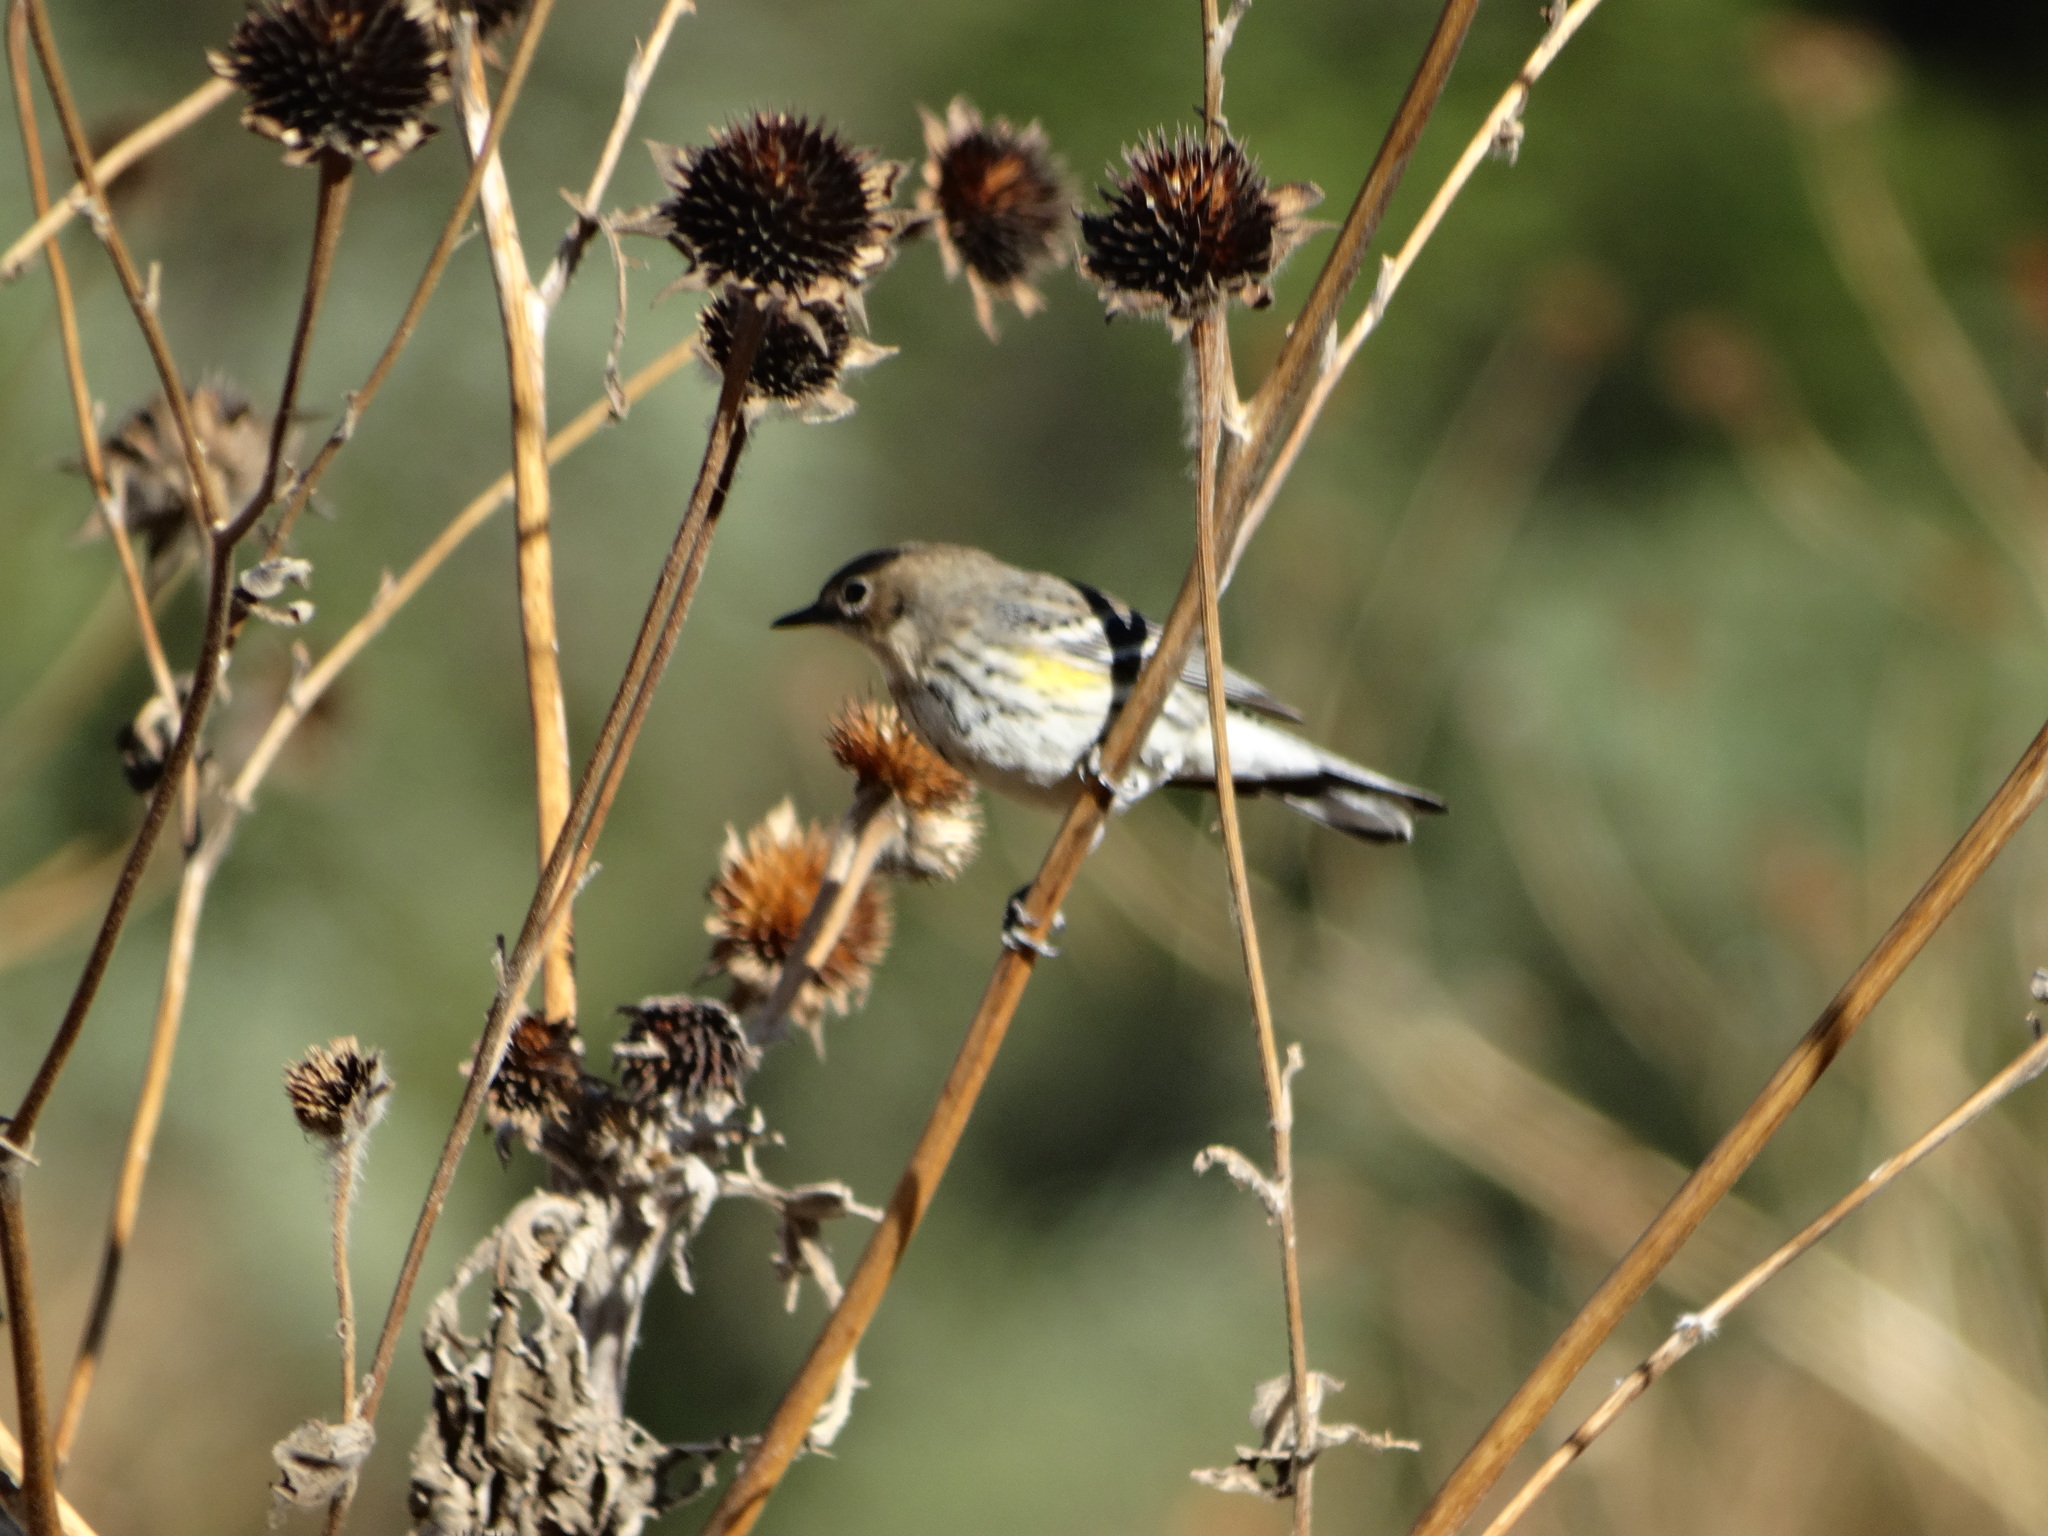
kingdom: Animalia
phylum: Chordata
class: Aves
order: Passeriformes
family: Parulidae
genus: Setophaga
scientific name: Setophaga coronata
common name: Myrtle warbler
